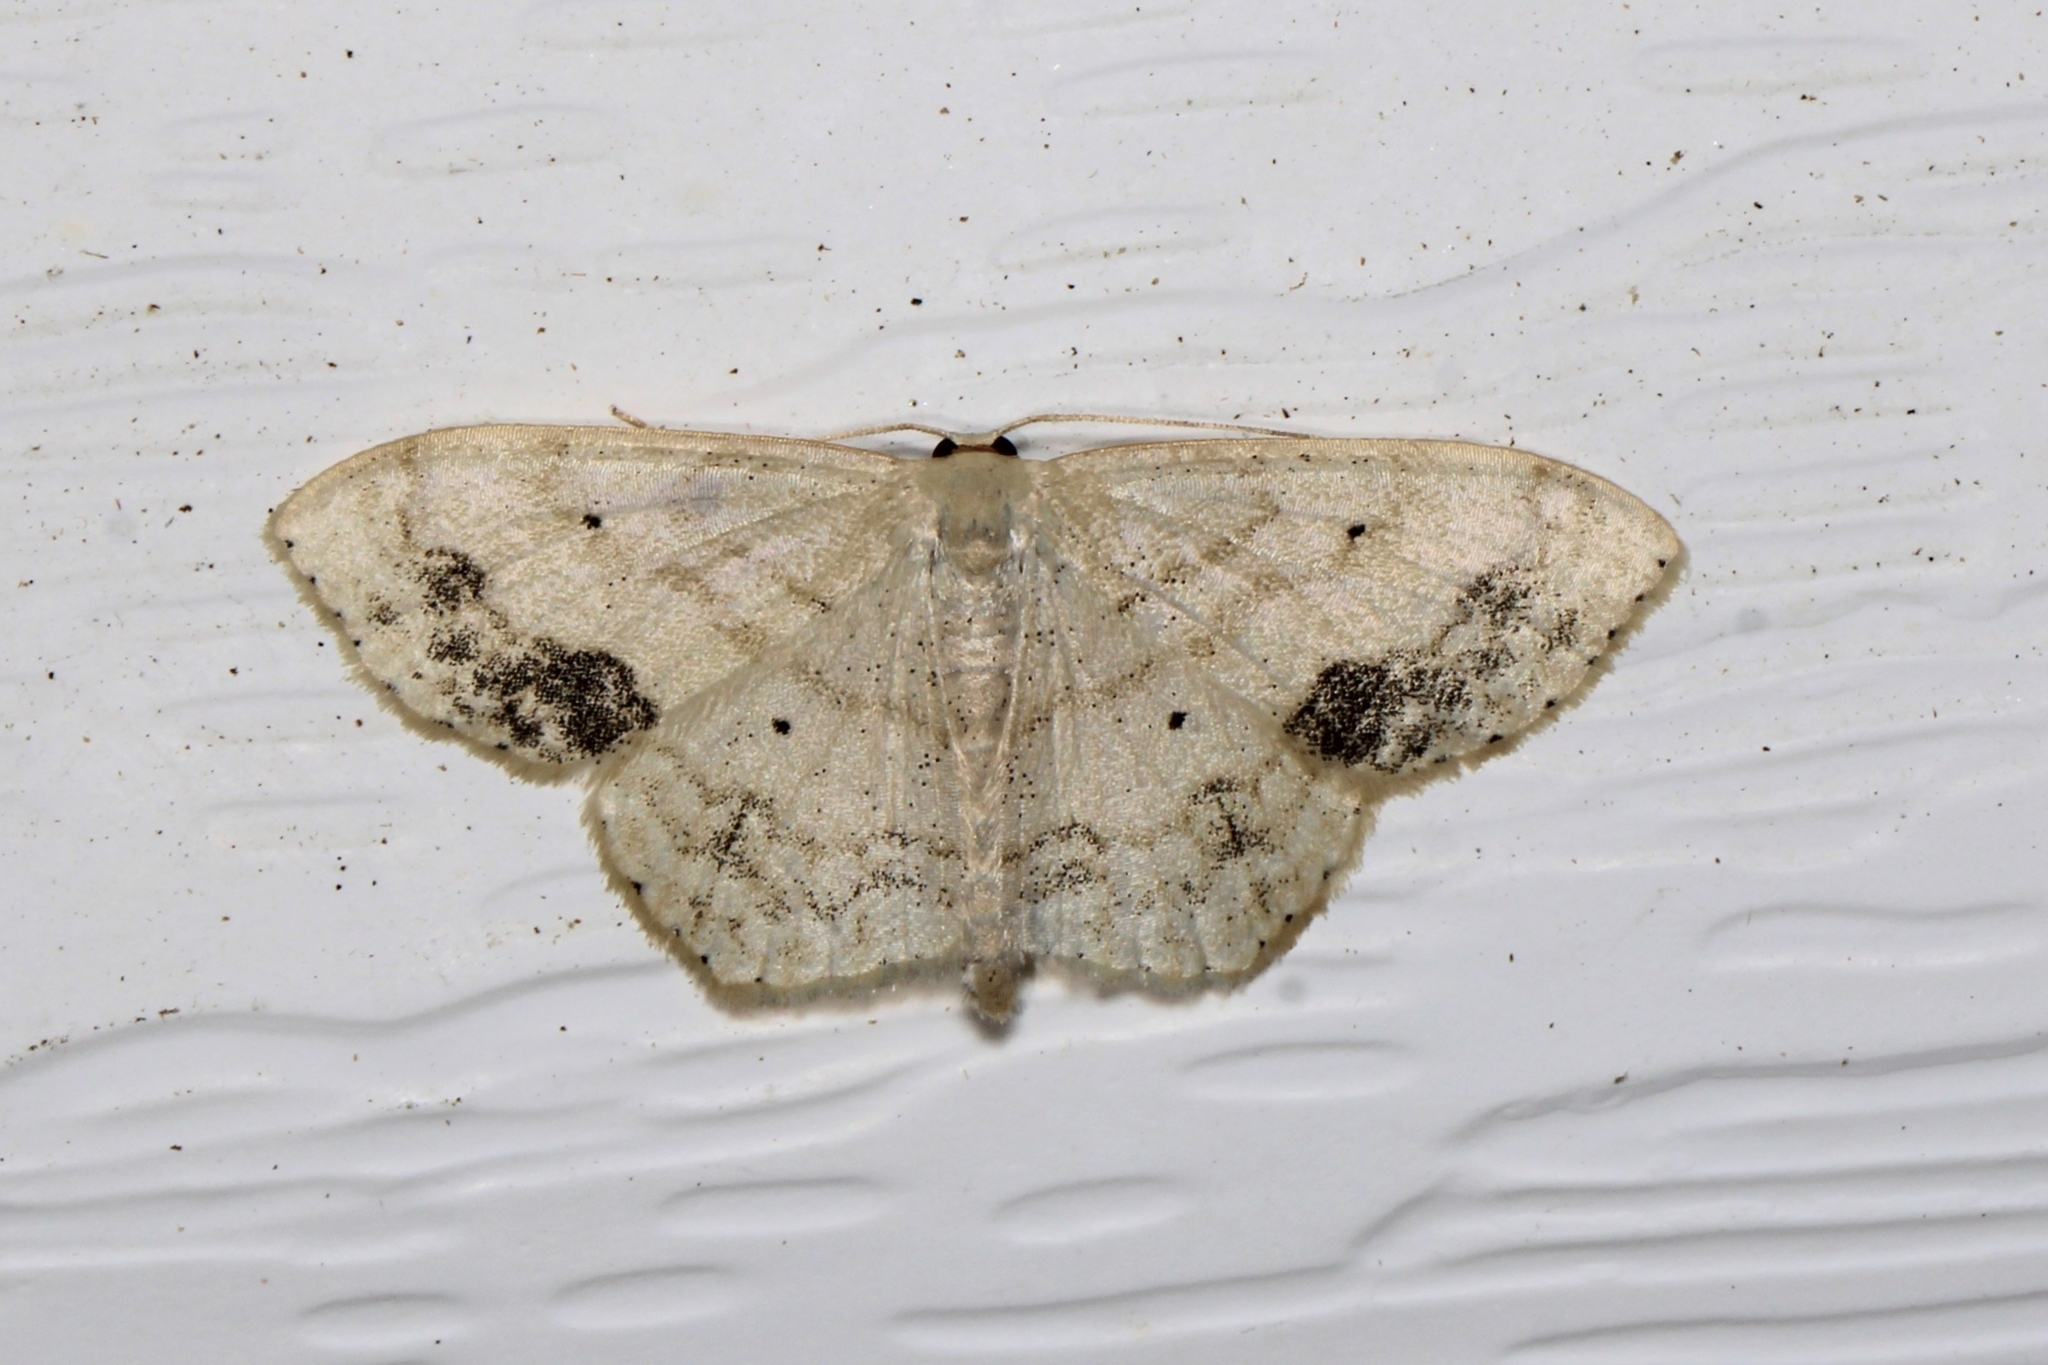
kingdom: Animalia
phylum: Arthropoda
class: Insecta
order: Lepidoptera
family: Geometridae
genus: Scopula
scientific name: Scopula limboundata
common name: Large lace border
